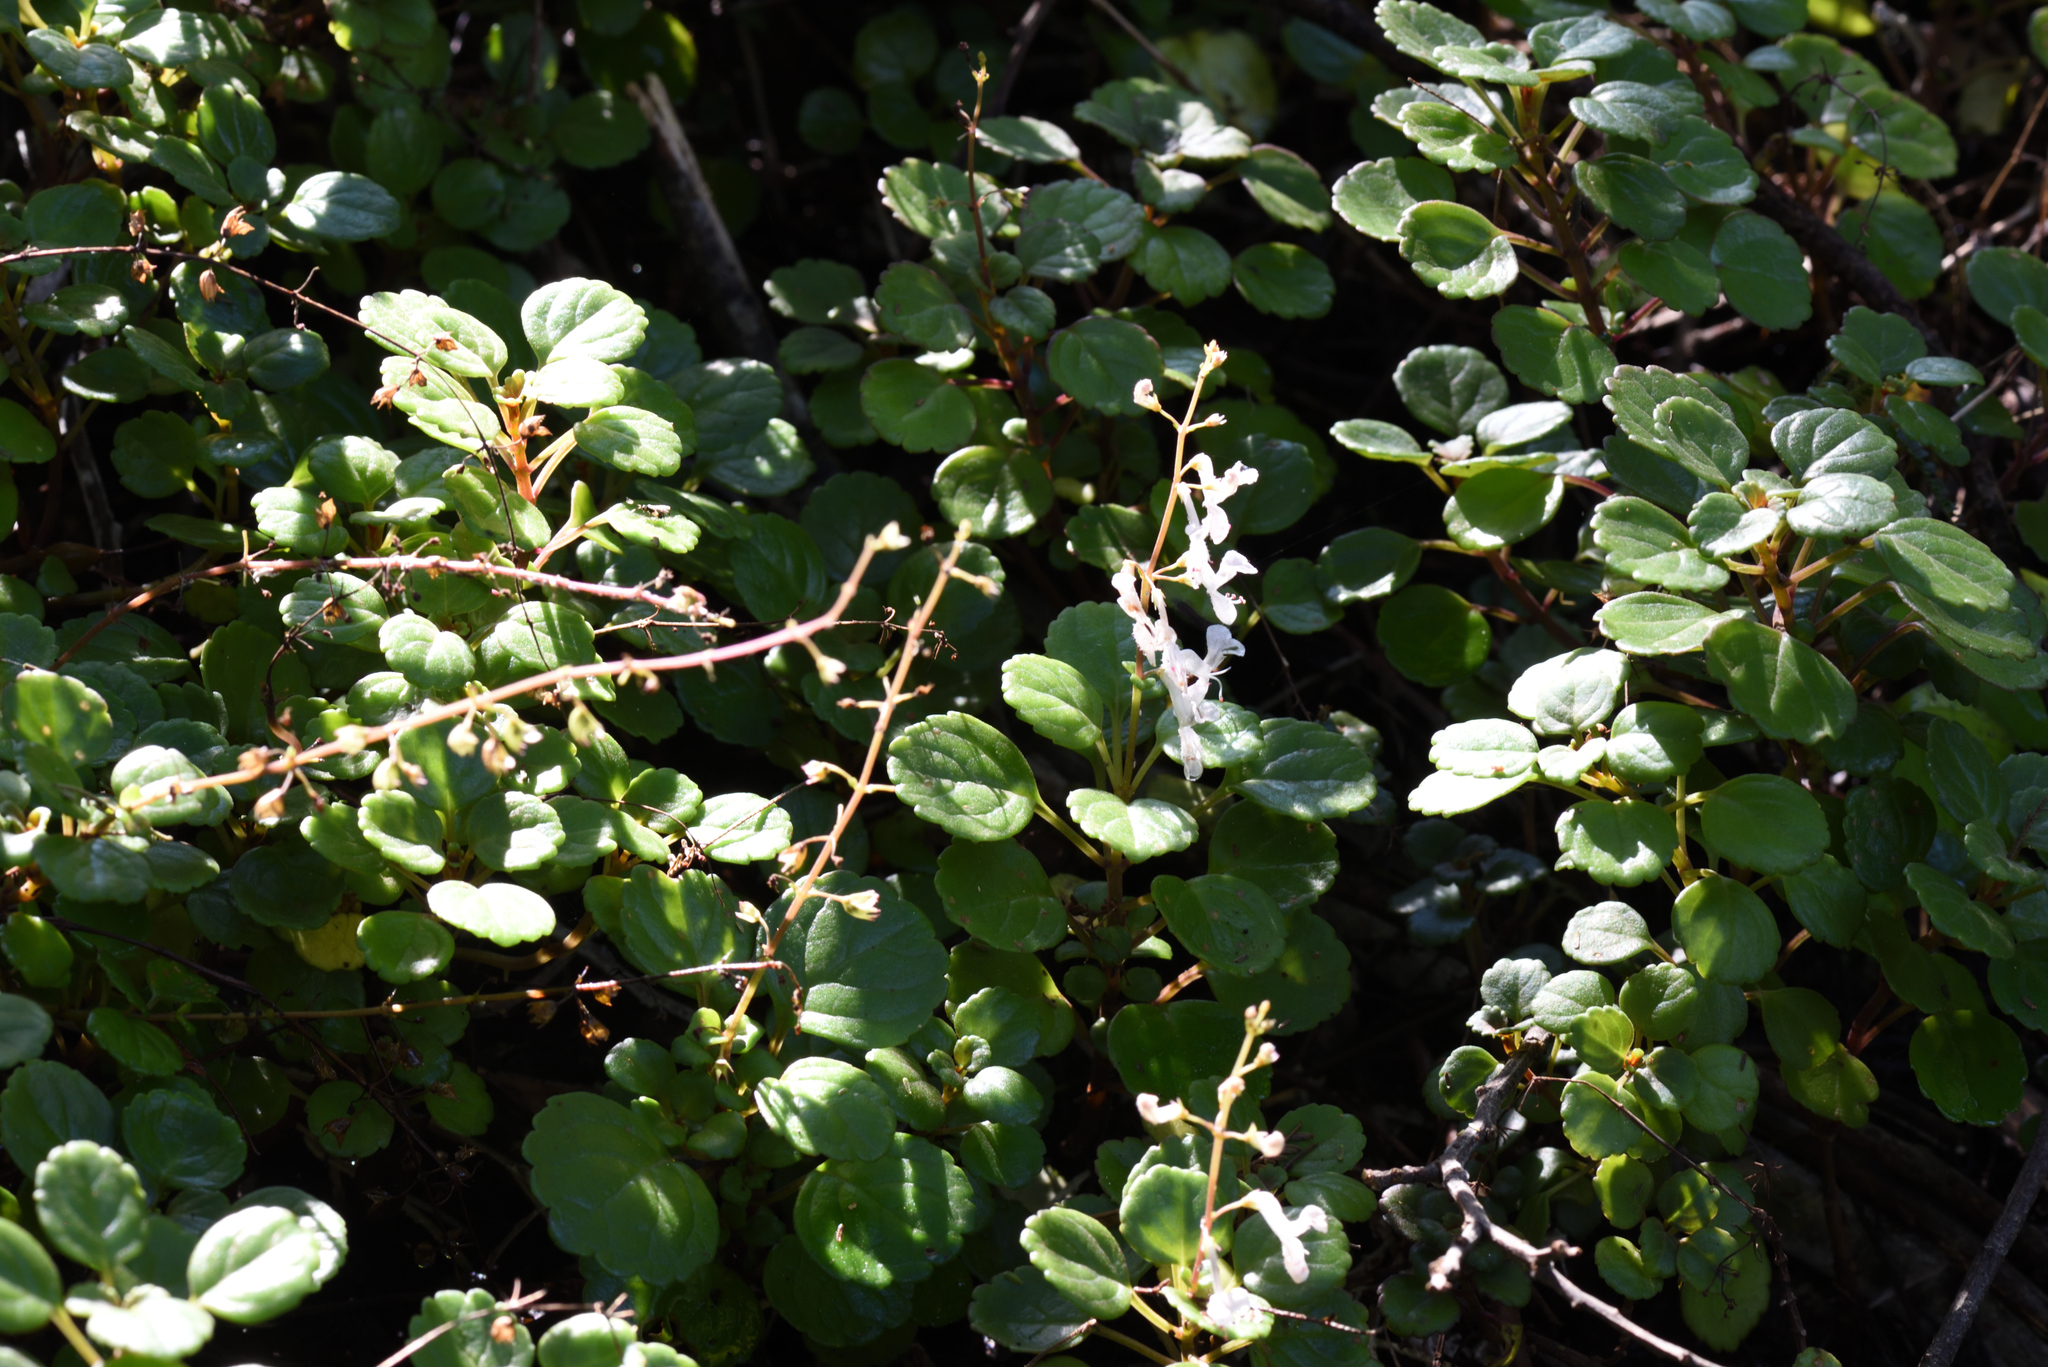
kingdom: Plantae
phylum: Tracheophyta
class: Magnoliopsida
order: Lamiales
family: Lamiaceae
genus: Plectranthus
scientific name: Plectranthus verticillatus
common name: Whorled plectranthus
